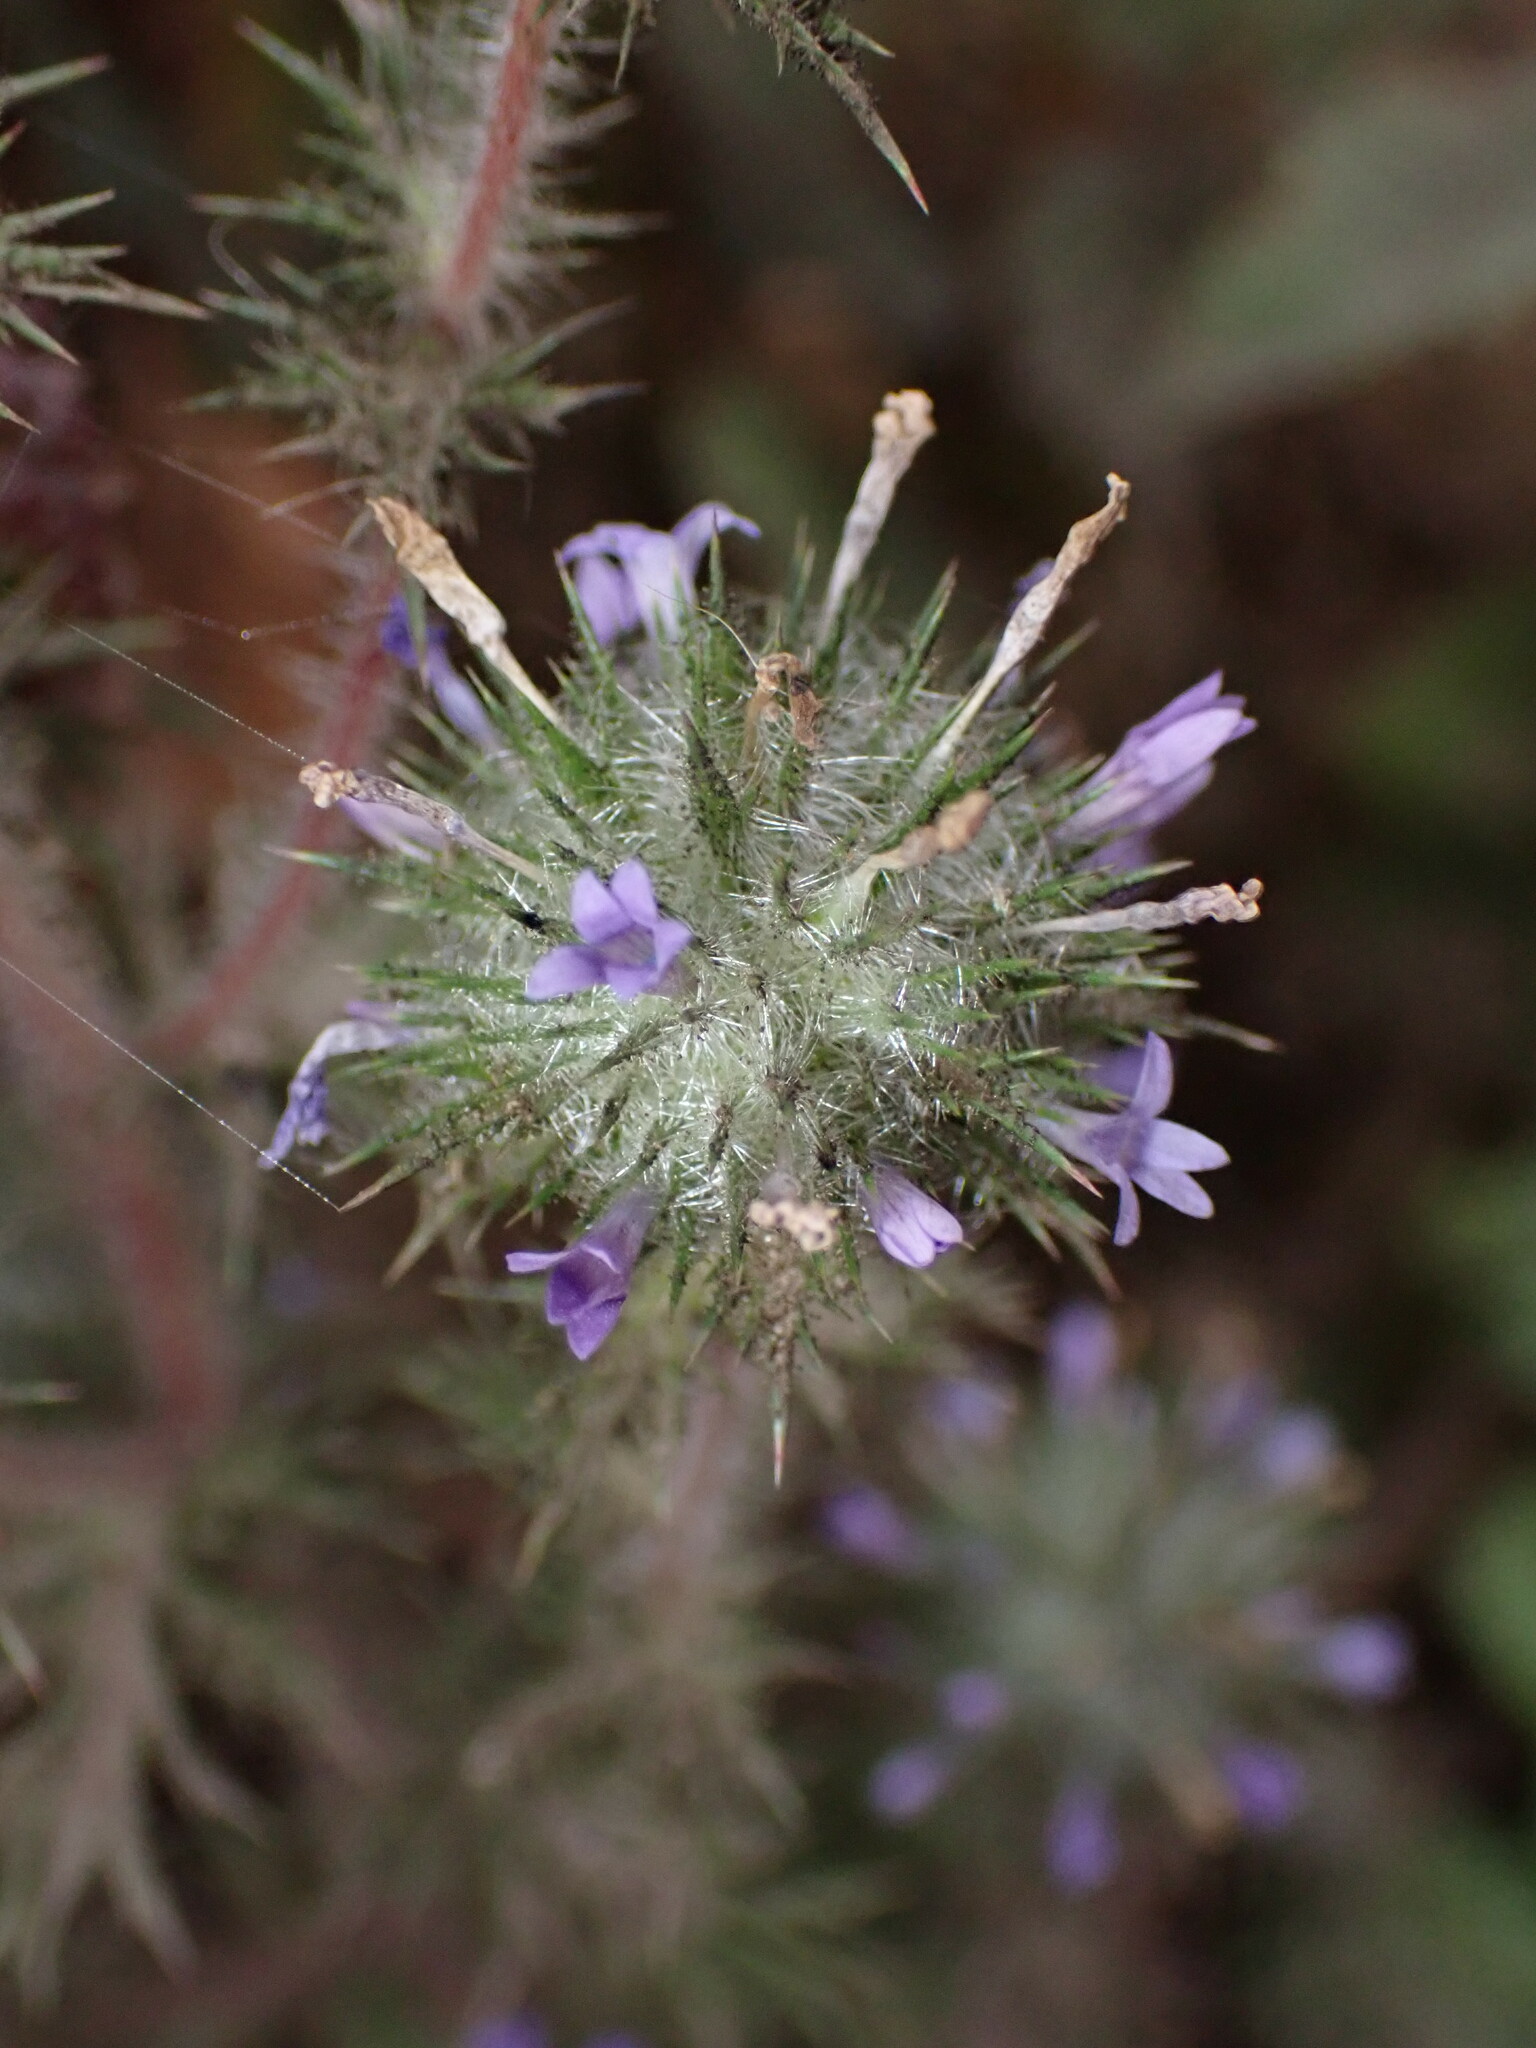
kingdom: Plantae
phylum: Tracheophyta
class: Magnoliopsida
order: Ericales
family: Polemoniaceae
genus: Navarretia
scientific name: Navarretia squarrosa
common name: Skunkweed
